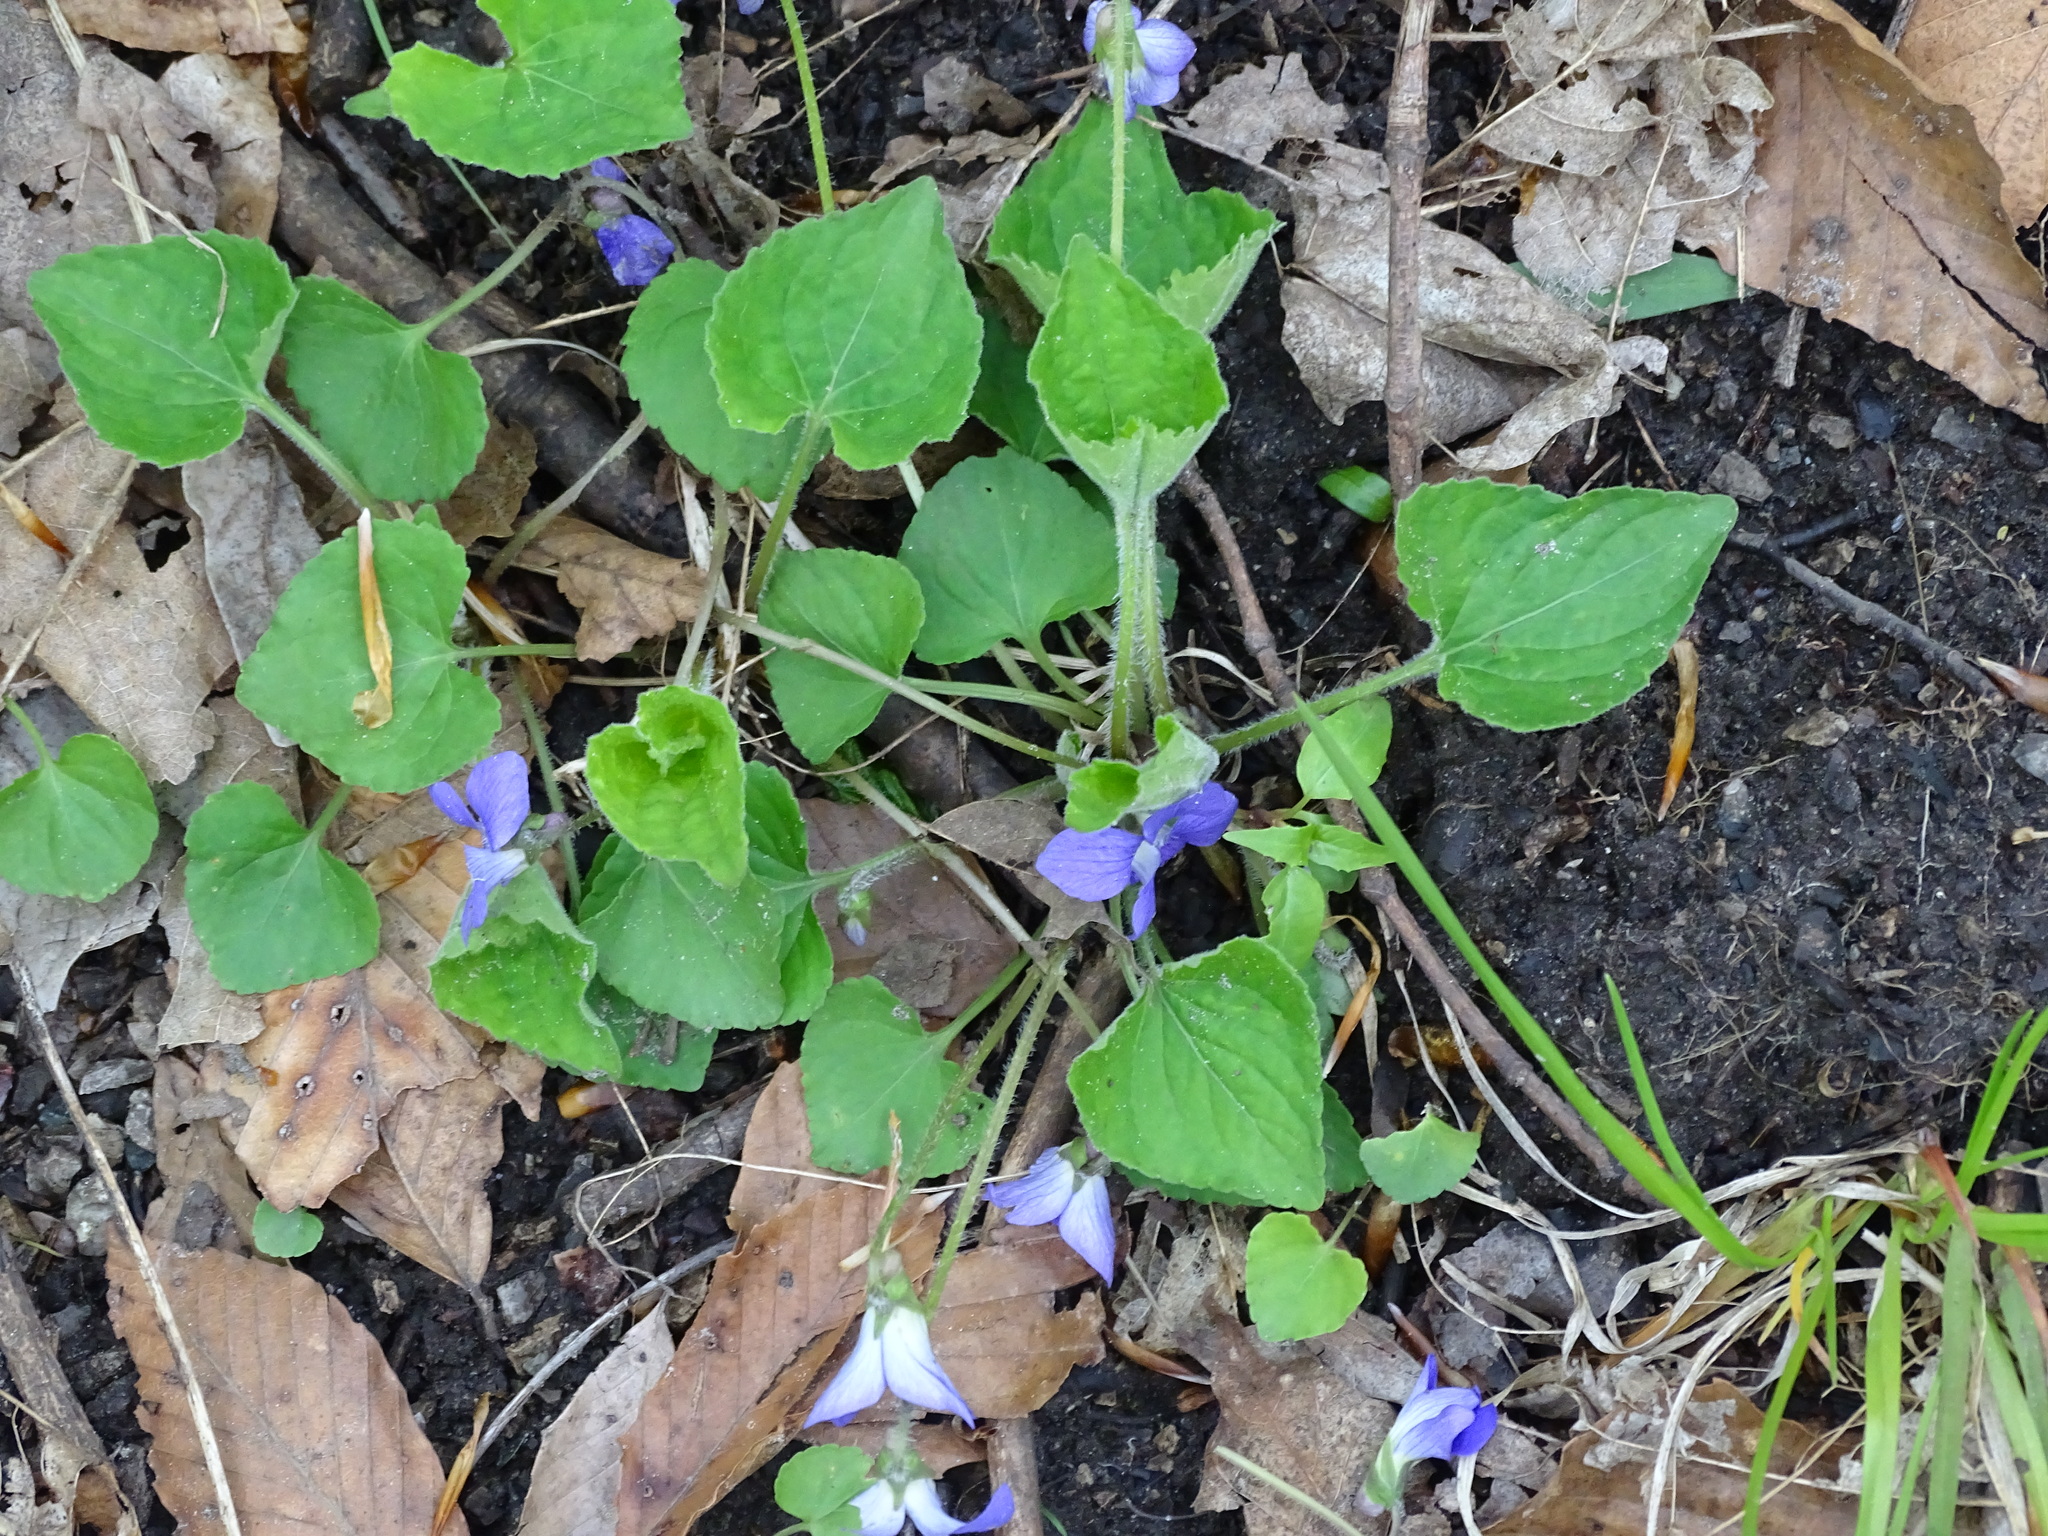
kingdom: Plantae
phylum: Tracheophyta
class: Magnoliopsida
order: Malpighiales
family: Violaceae
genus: Viola
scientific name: Viola sororia
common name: Dooryard violet
